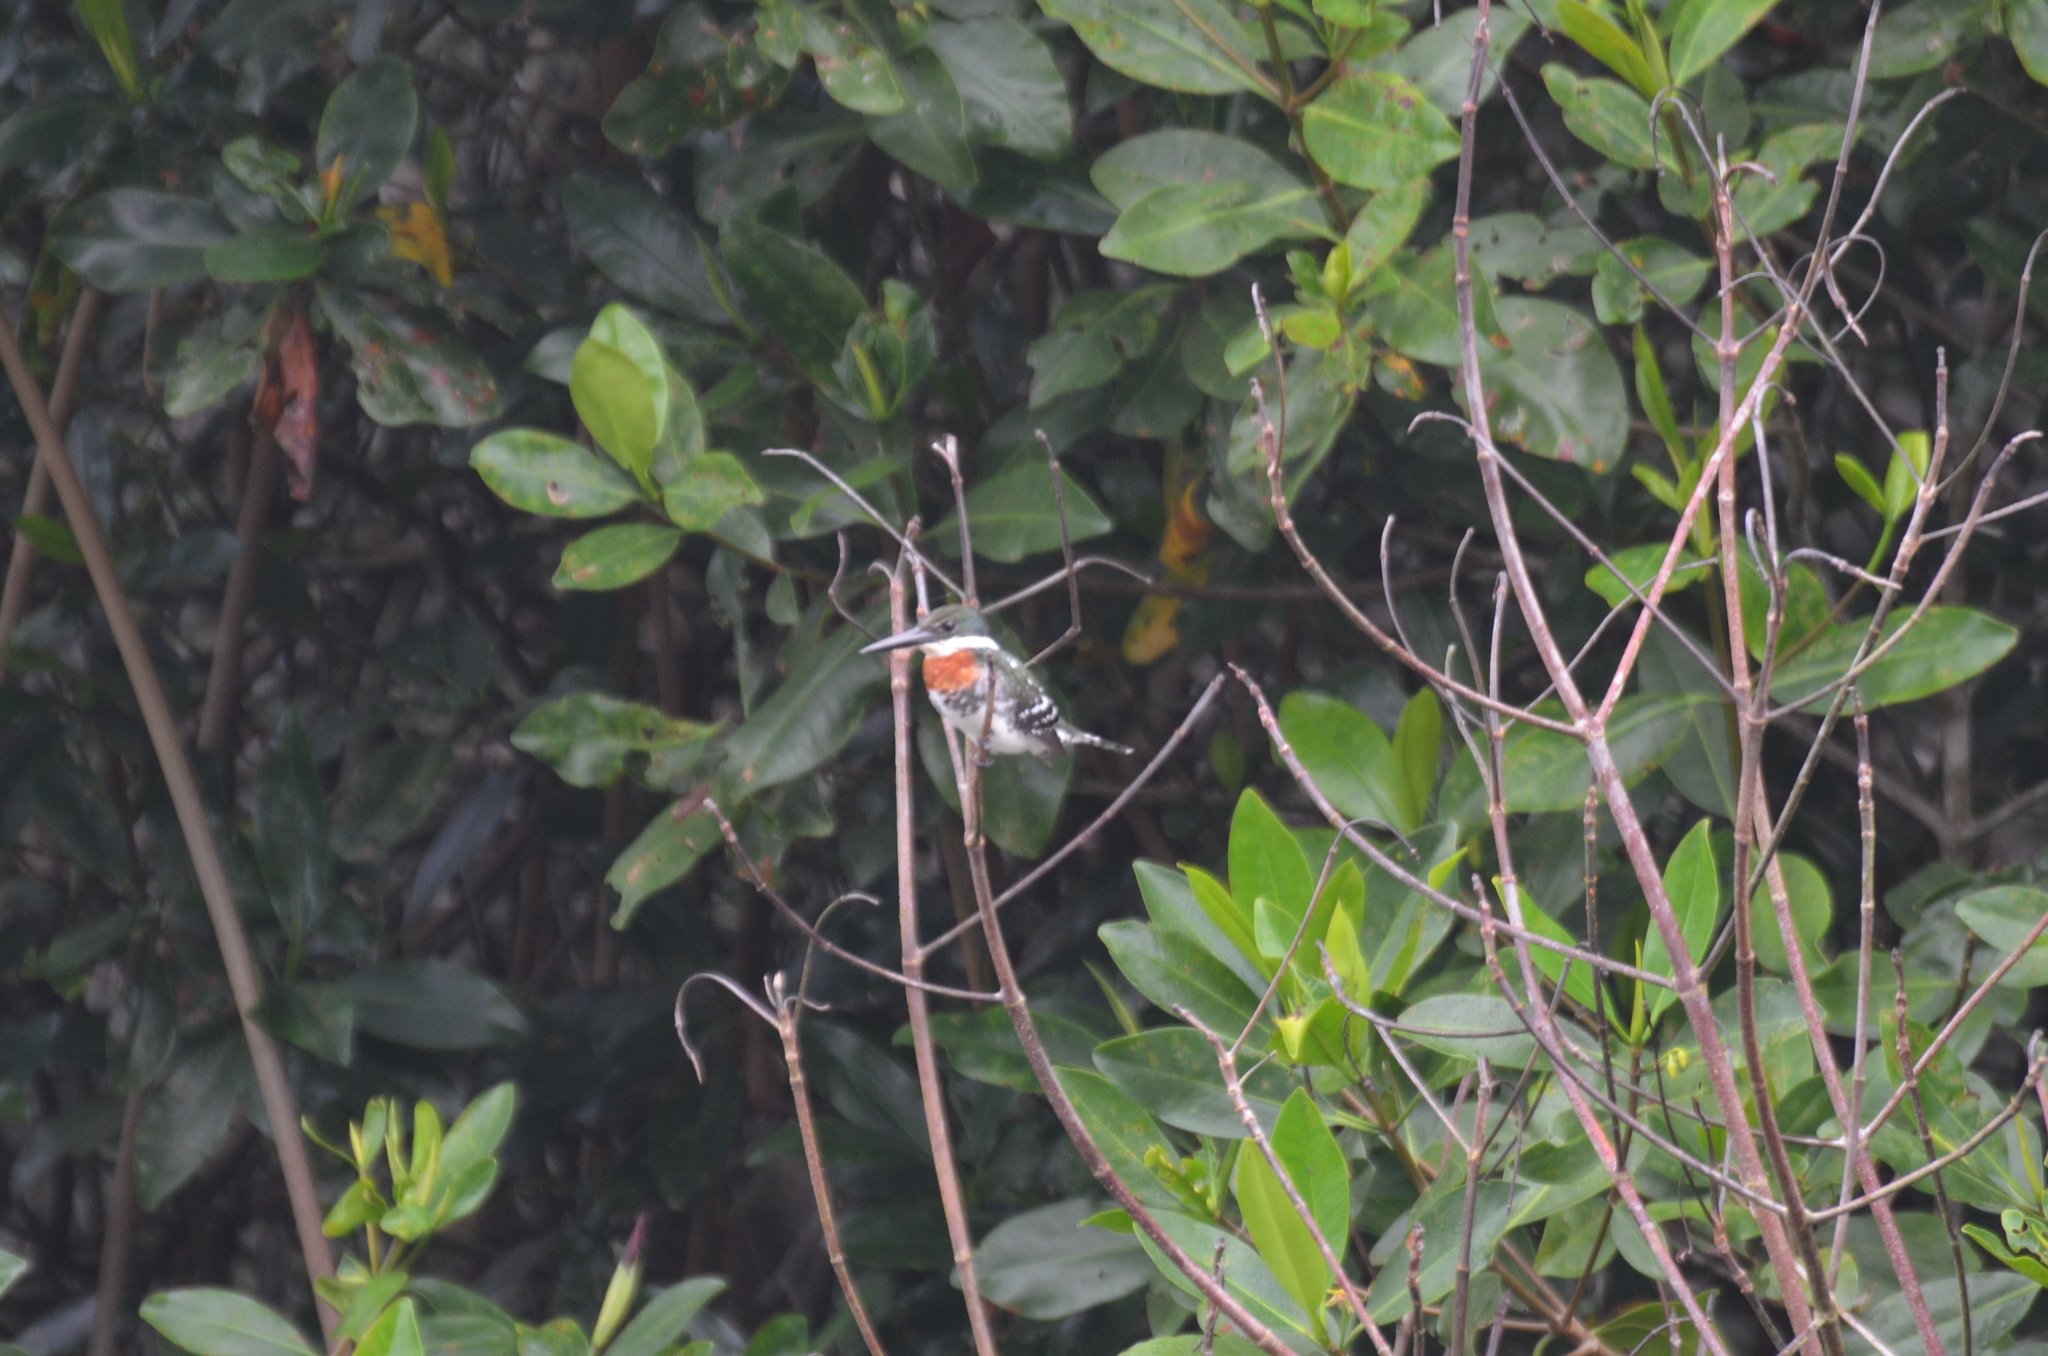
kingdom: Animalia
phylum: Chordata
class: Aves
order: Coraciiformes
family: Alcedinidae
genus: Chloroceryle
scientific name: Chloroceryle americana
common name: Green kingfisher
